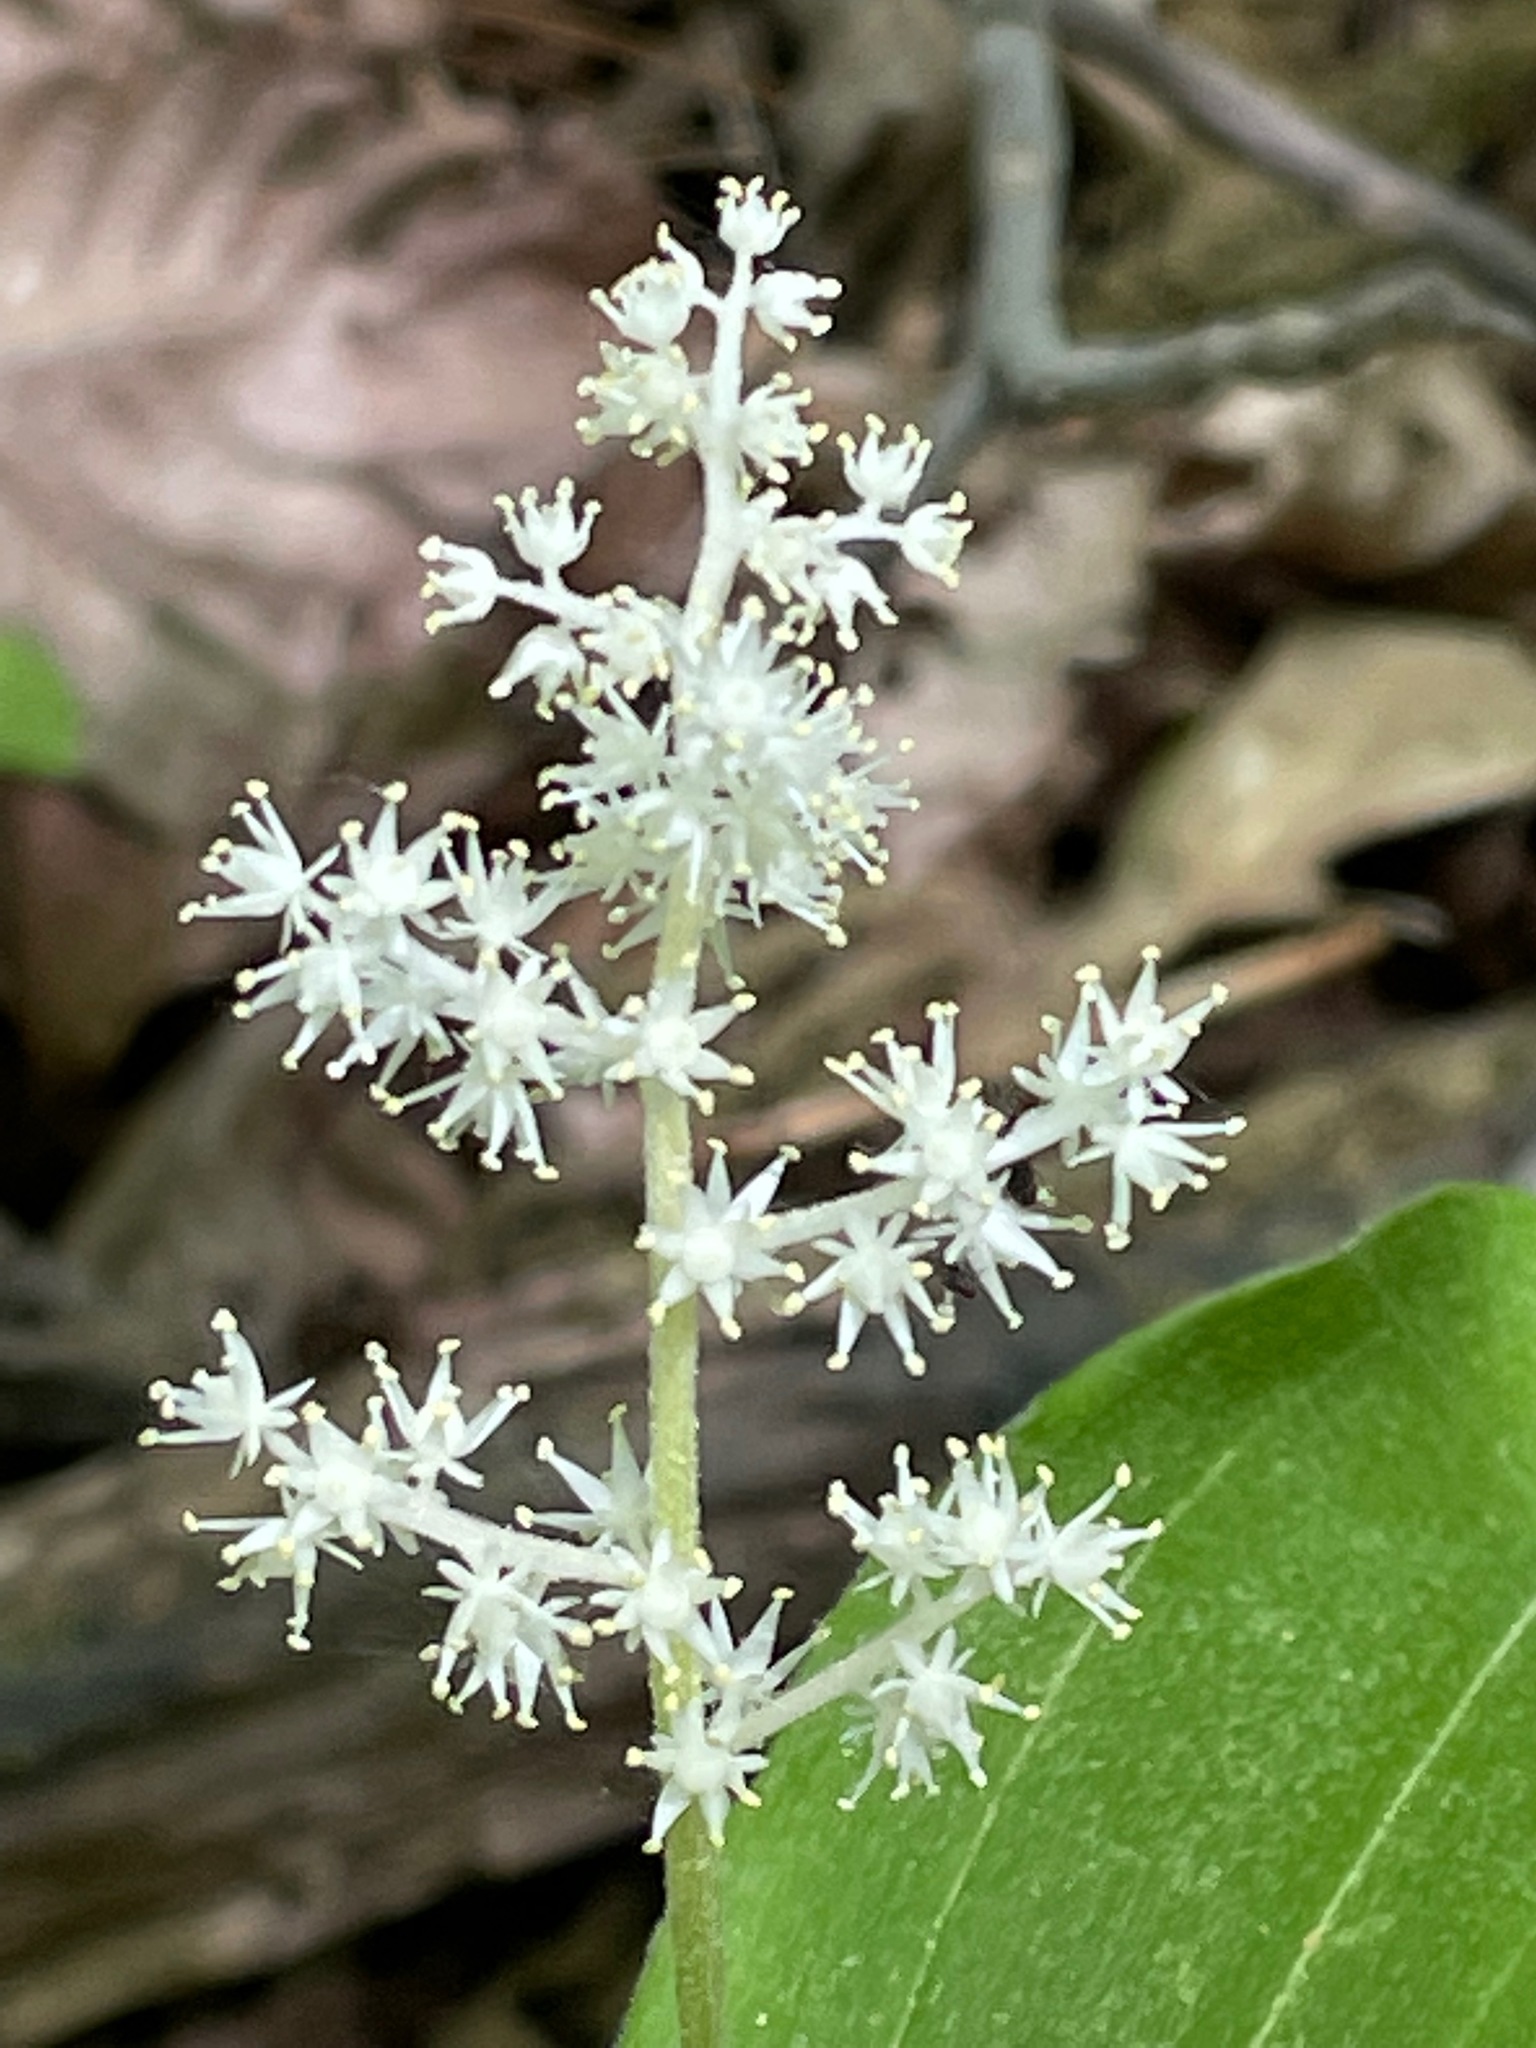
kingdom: Plantae
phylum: Tracheophyta
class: Liliopsida
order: Asparagales
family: Asparagaceae
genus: Maianthemum
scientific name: Maianthemum racemosum
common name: False spikenard
